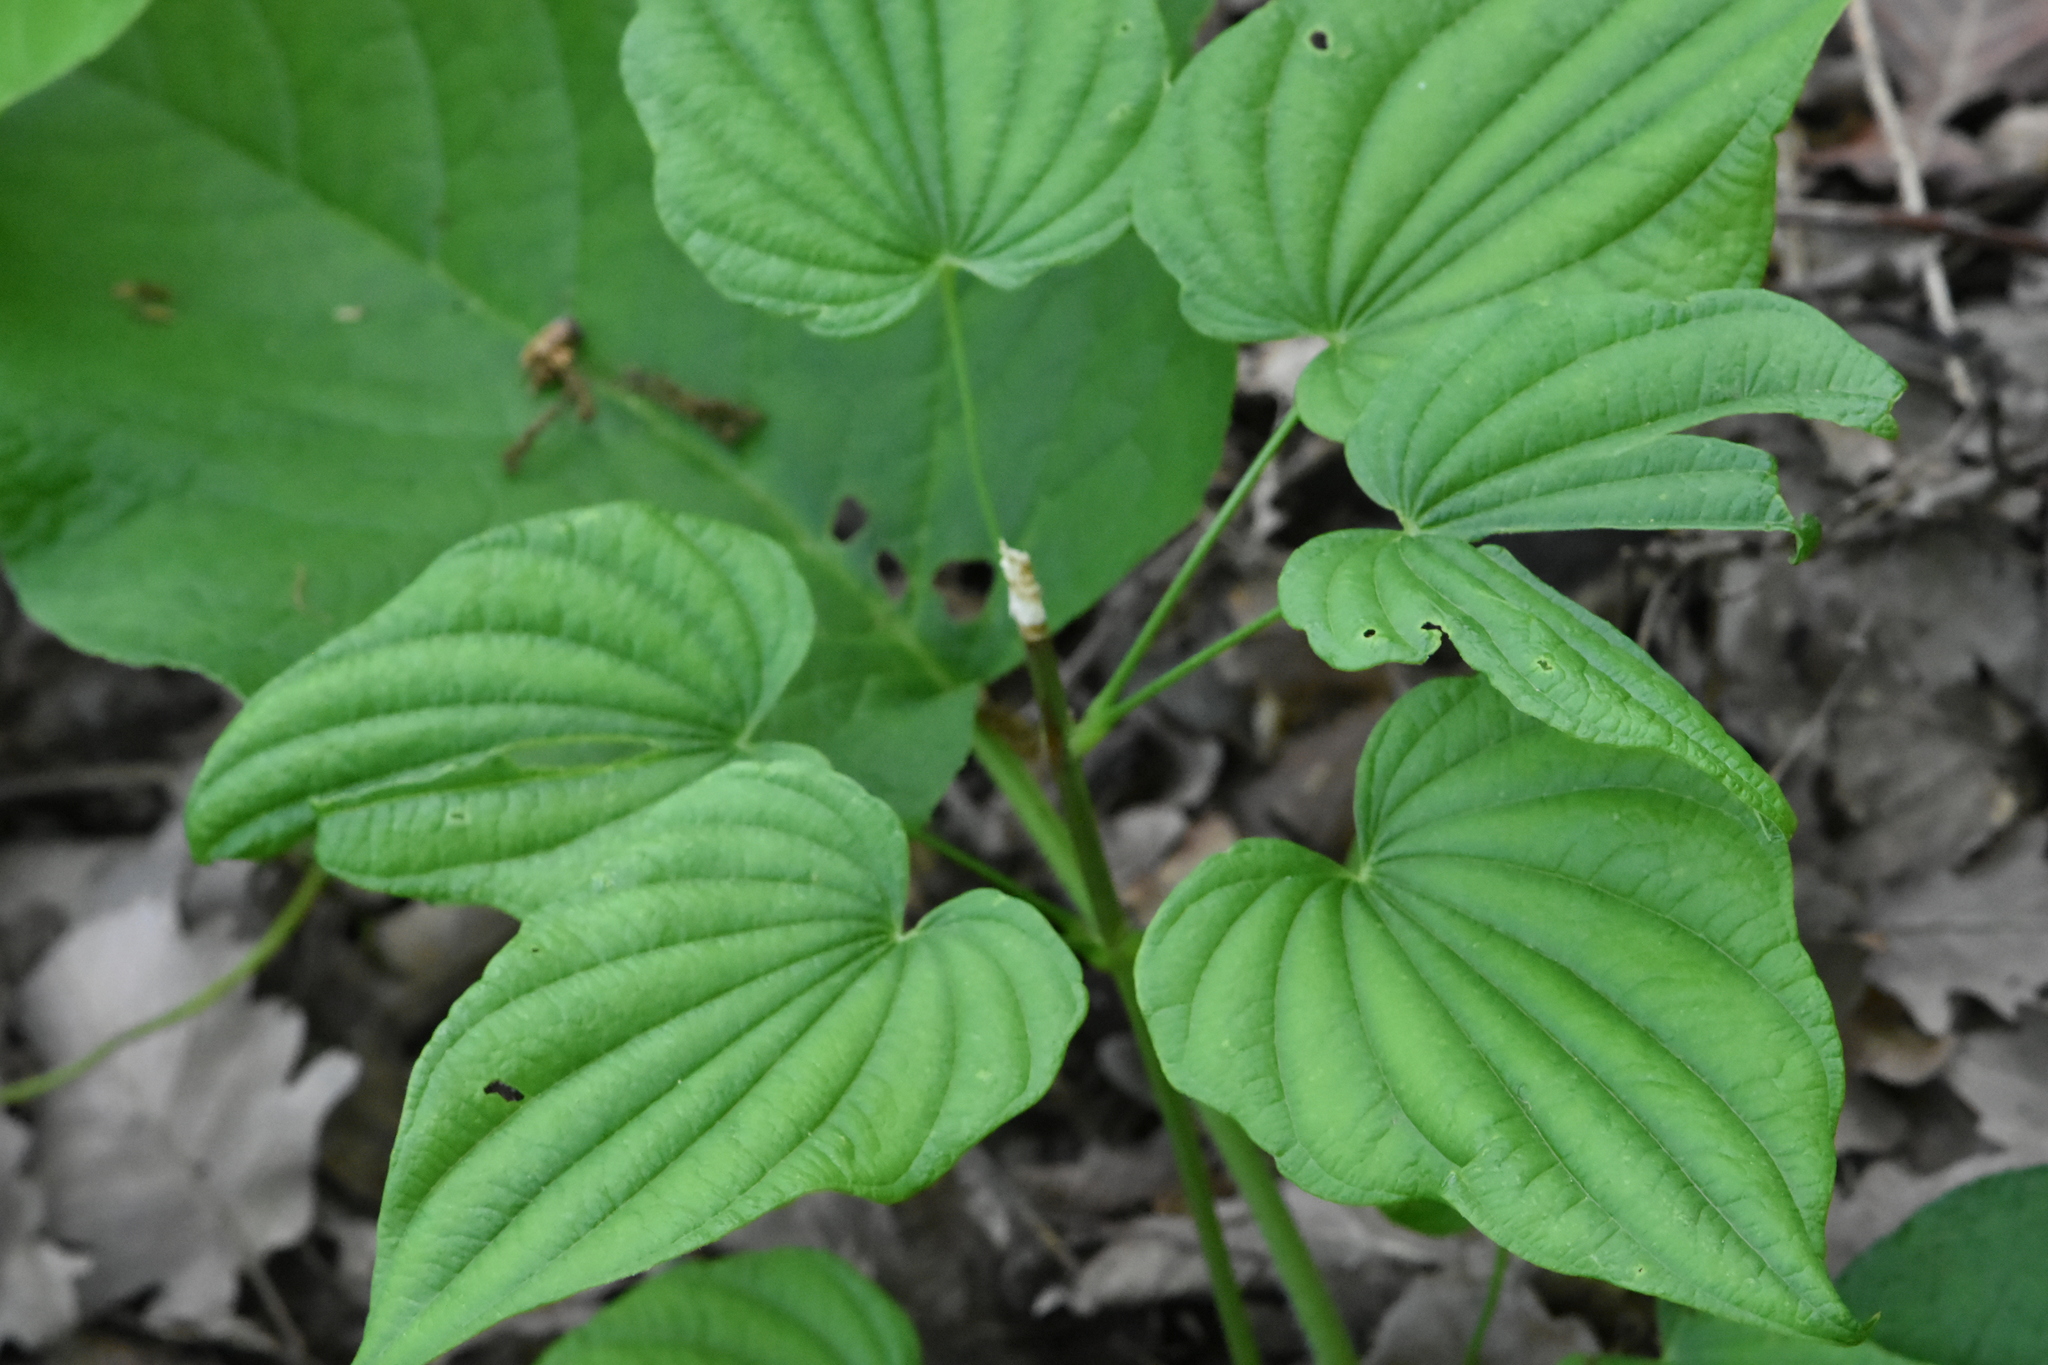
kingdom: Plantae
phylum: Tracheophyta
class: Liliopsida
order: Dioscoreales
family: Dioscoreaceae
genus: Dioscorea
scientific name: Dioscorea caucasica
